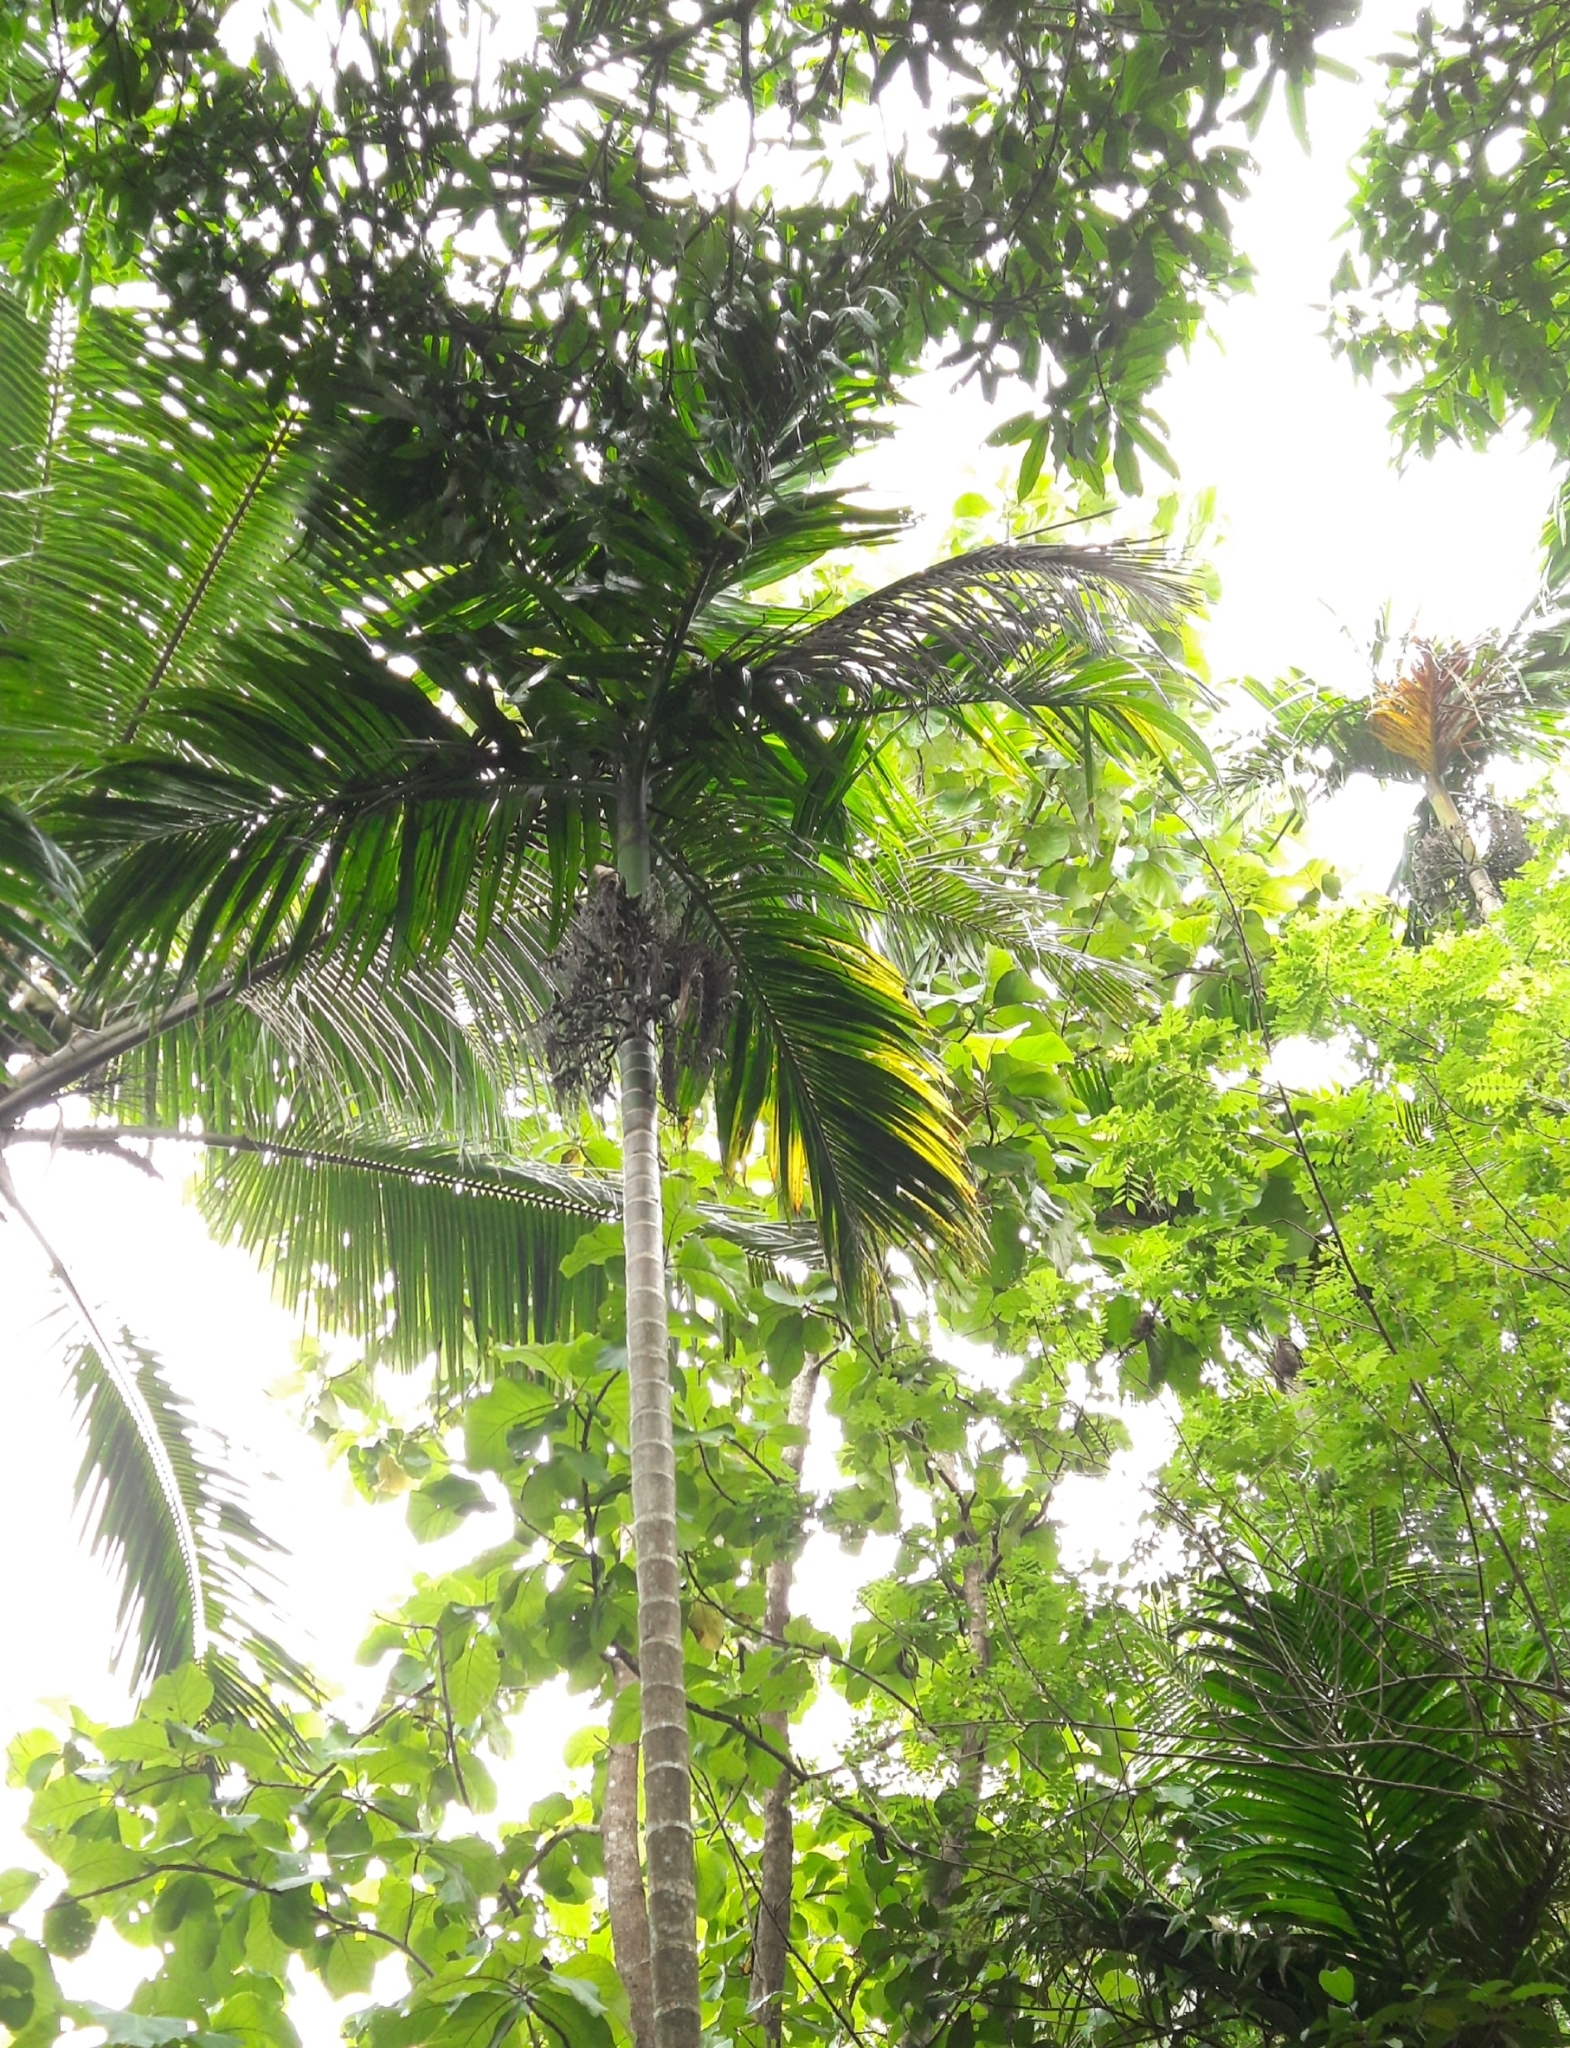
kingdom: Plantae
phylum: Tracheophyta
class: Liliopsida
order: Arecales
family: Arecaceae
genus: Areca
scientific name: Areca catechu
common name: Indian-nut
